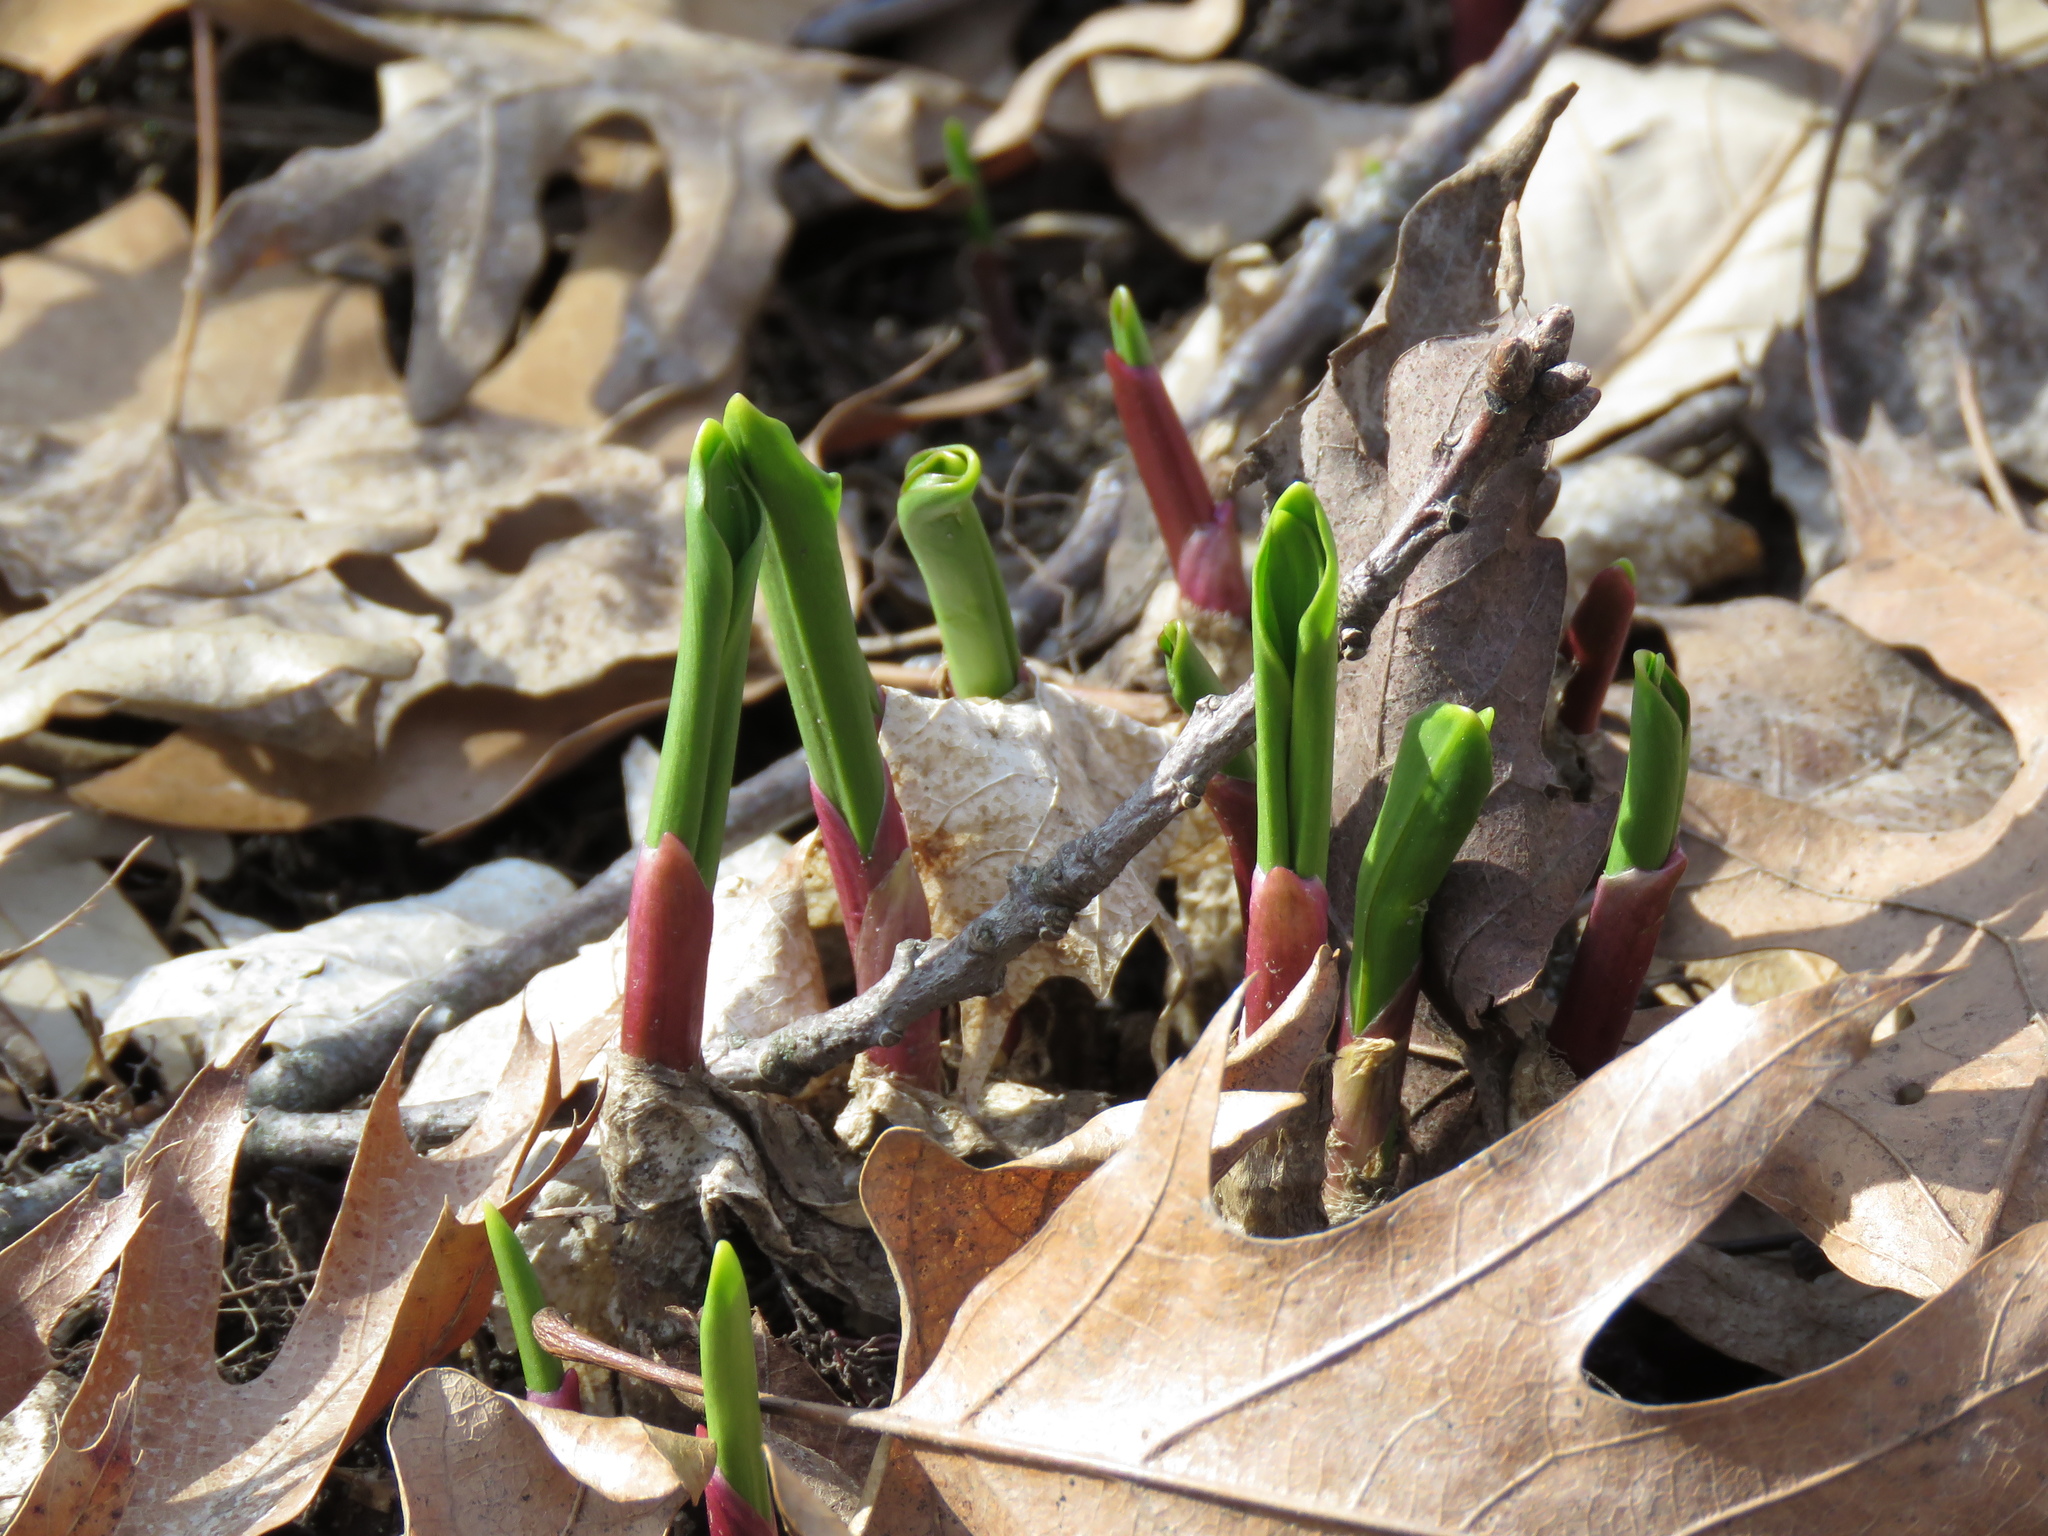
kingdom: Plantae
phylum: Tracheophyta
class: Liliopsida
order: Asparagales
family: Amaryllidaceae
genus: Allium
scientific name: Allium tricoccum
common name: Ramp
